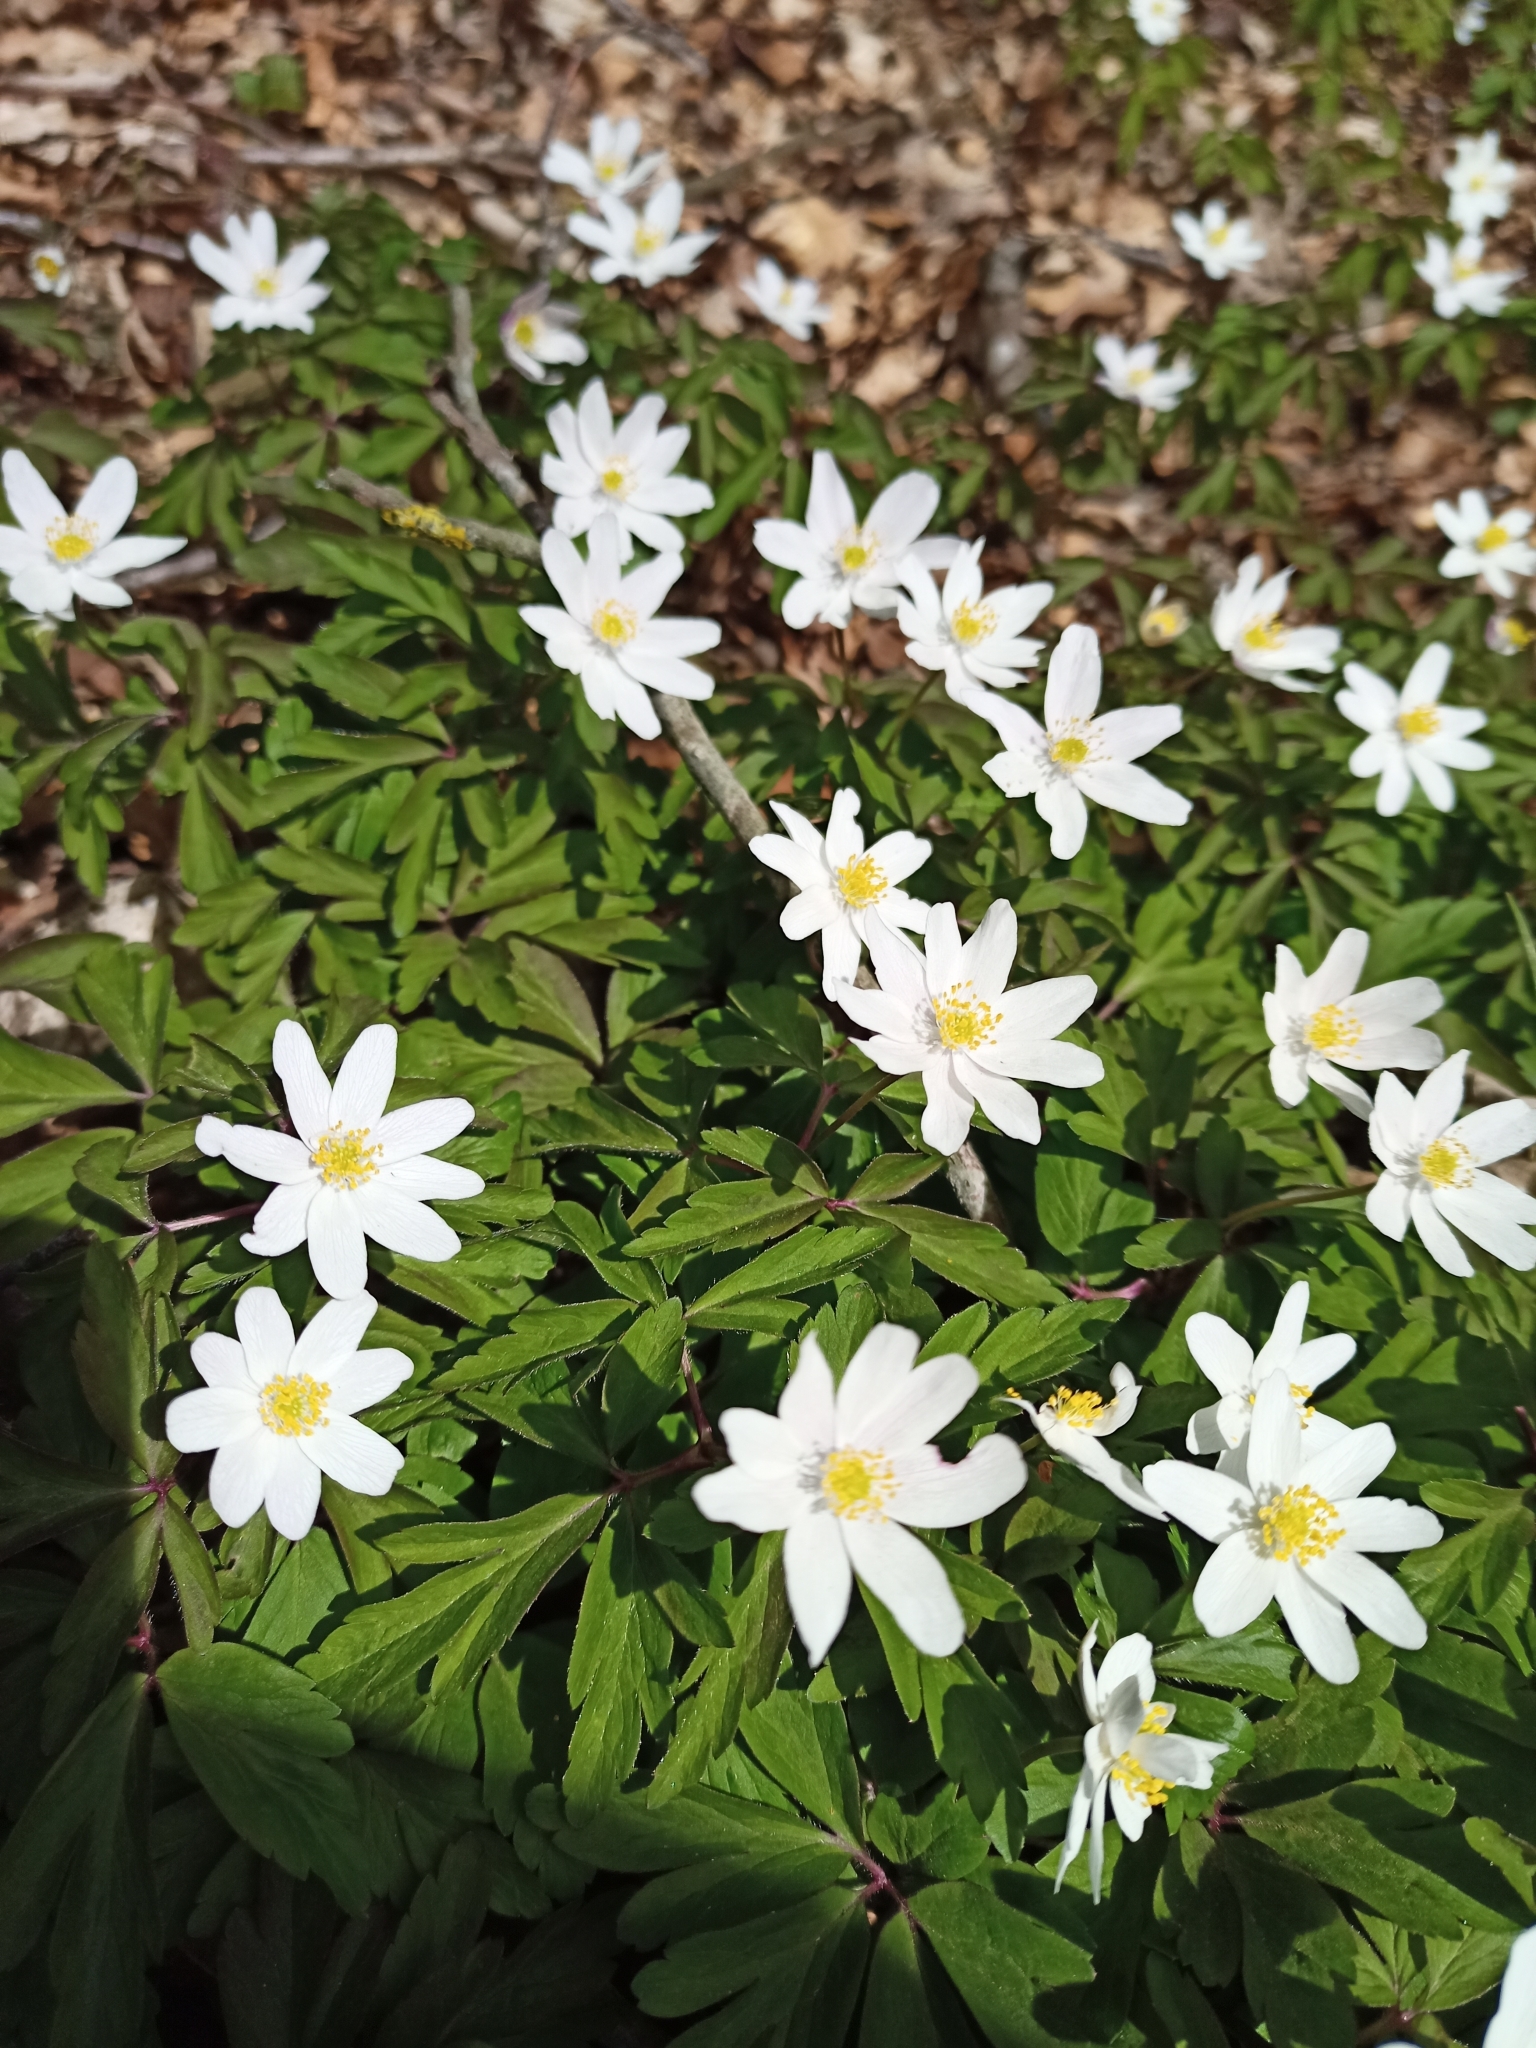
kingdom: Plantae
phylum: Tracheophyta
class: Magnoliopsida
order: Ranunculales
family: Ranunculaceae
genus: Anemone
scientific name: Anemone nemorosa
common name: Wood anemone
